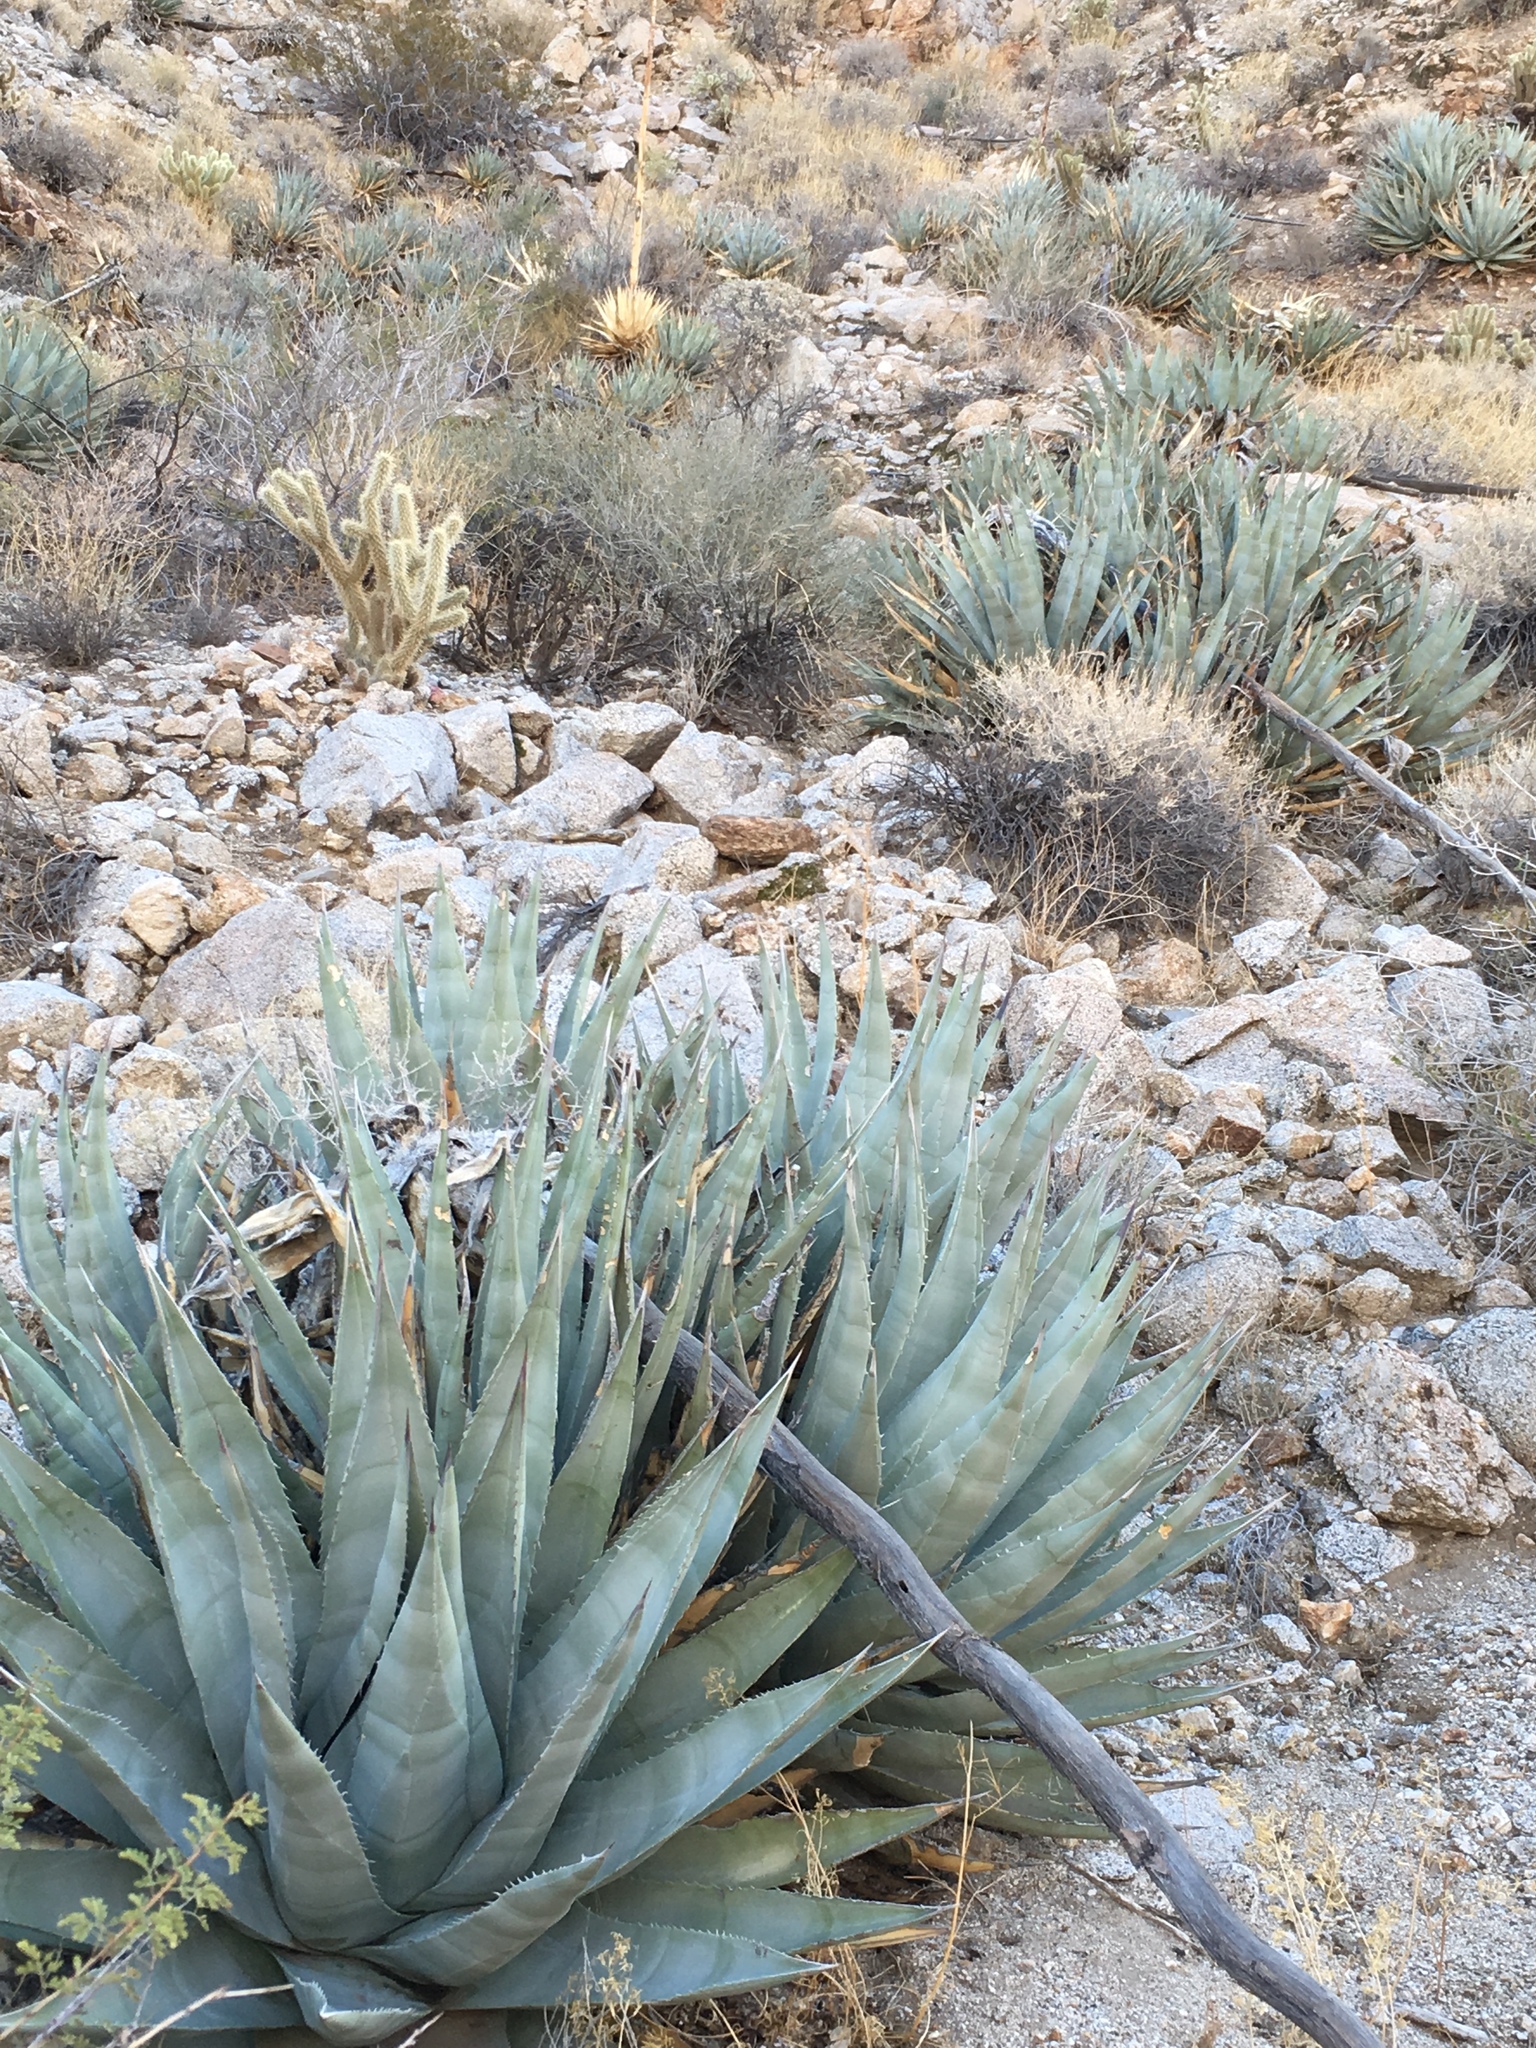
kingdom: Plantae
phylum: Tracheophyta
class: Liliopsida
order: Asparagales
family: Asparagaceae
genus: Agave
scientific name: Agave deserti
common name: Desert agave
